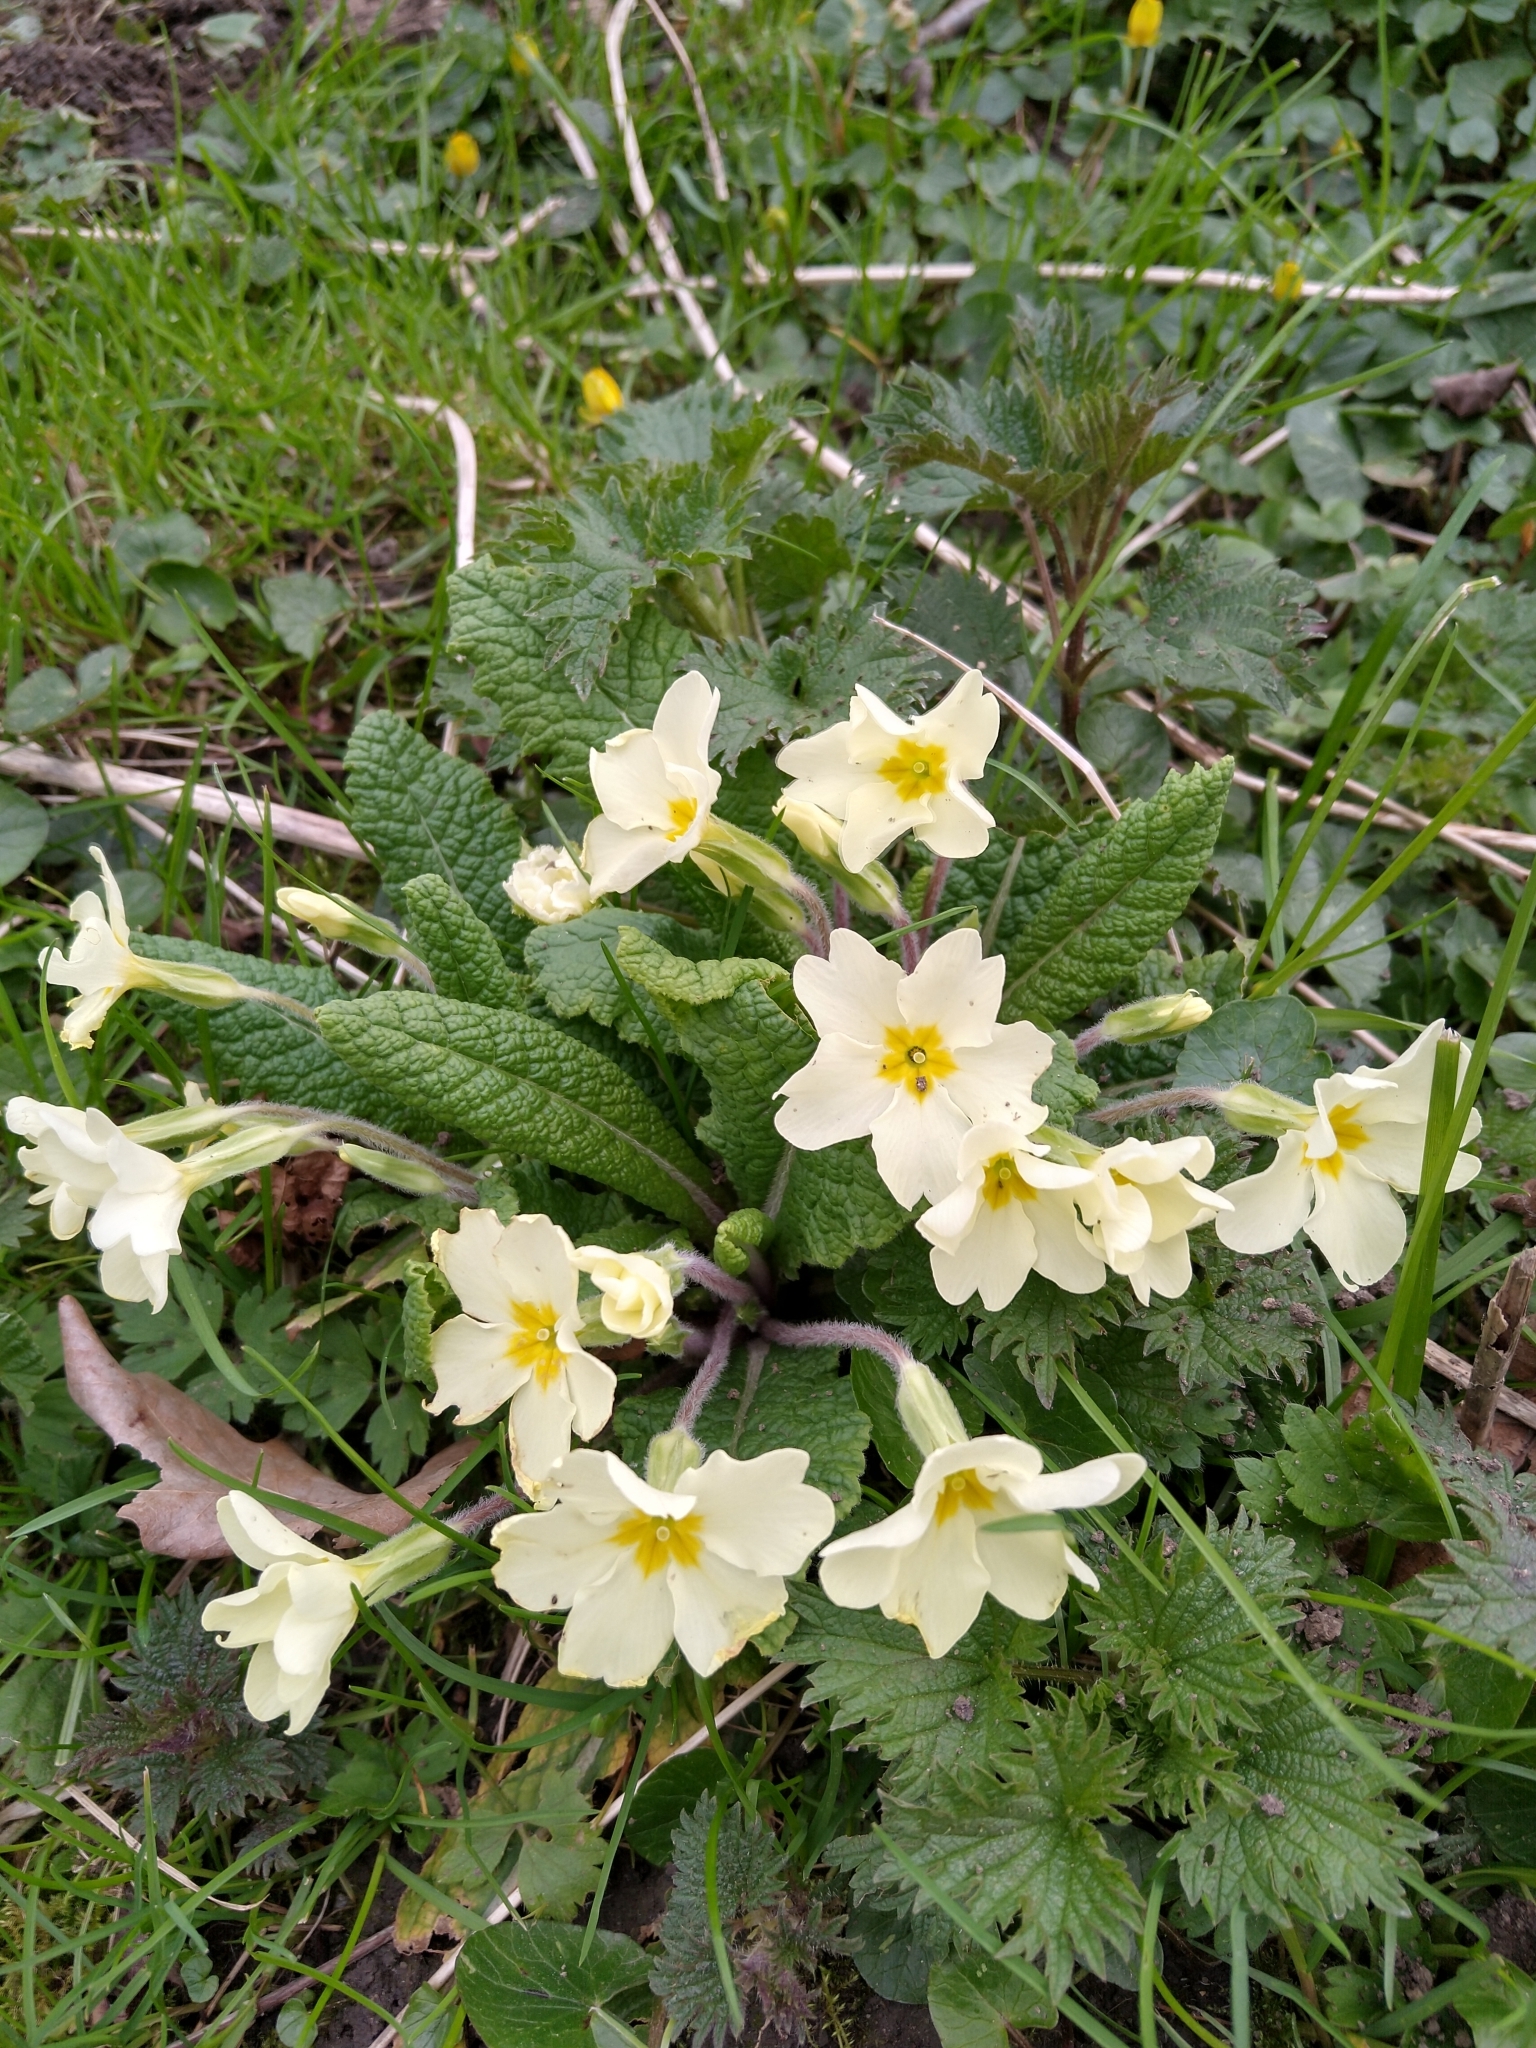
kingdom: Plantae
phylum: Tracheophyta
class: Magnoliopsida
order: Ericales
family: Primulaceae
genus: Primula
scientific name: Primula vulgaris
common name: Primrose
